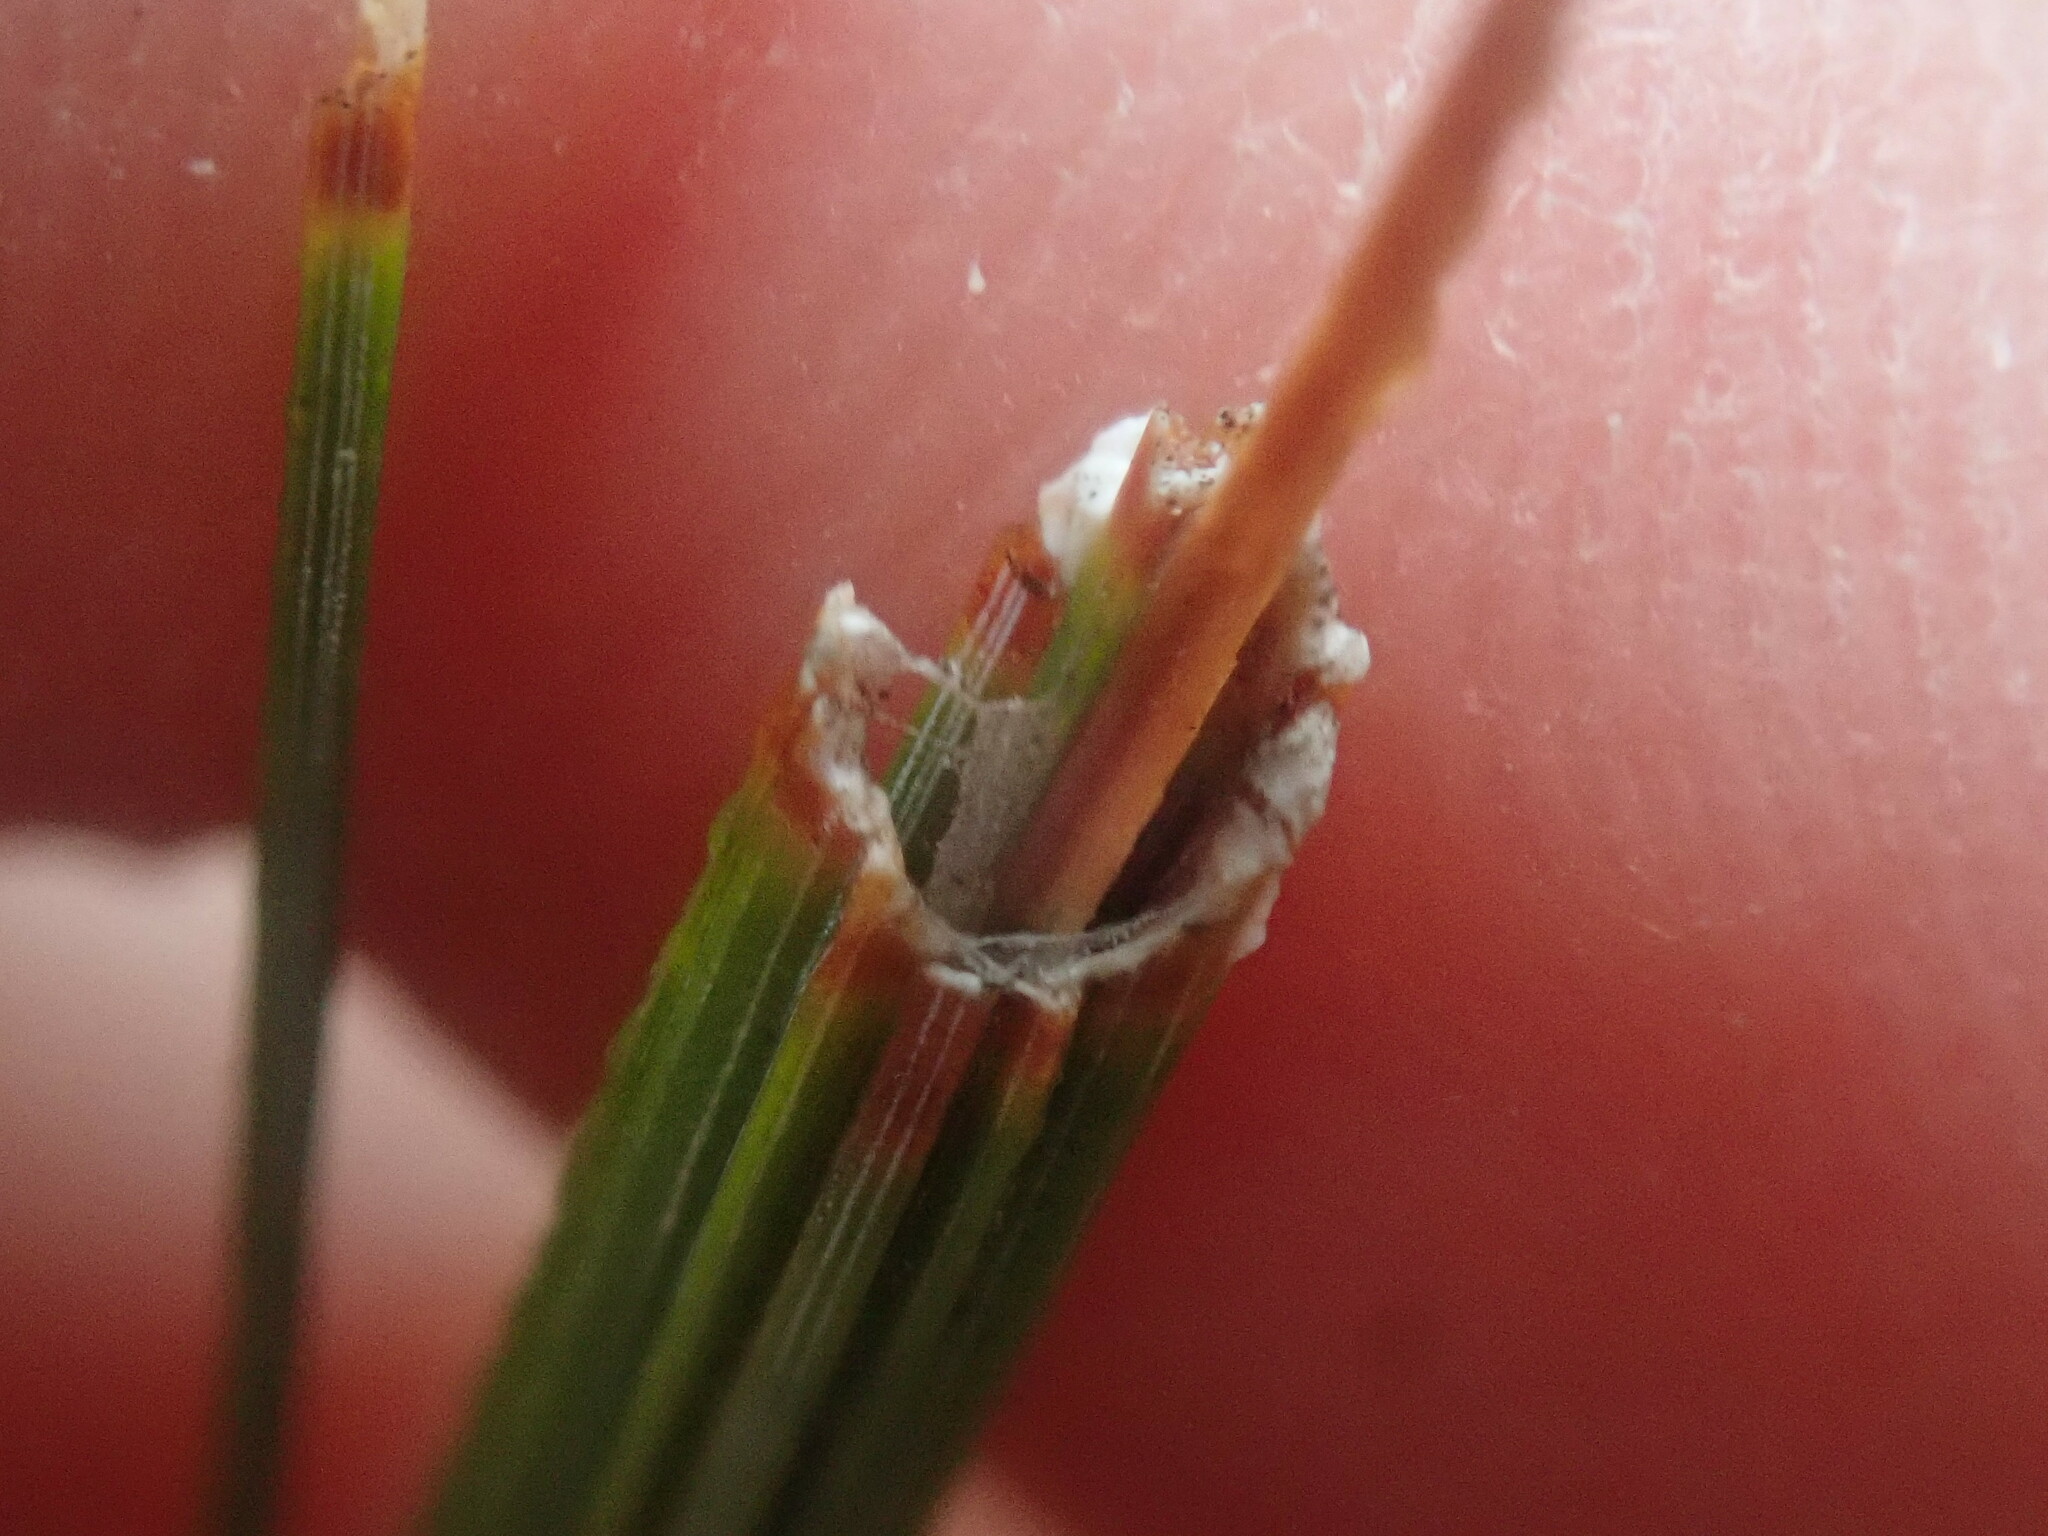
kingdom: Animalia
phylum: Arthropoda
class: Insecta
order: Lepidoptera
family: Tortricidae
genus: Argyrotaenia
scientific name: Argyrotaenia pinatubana
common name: Pine tube moth
